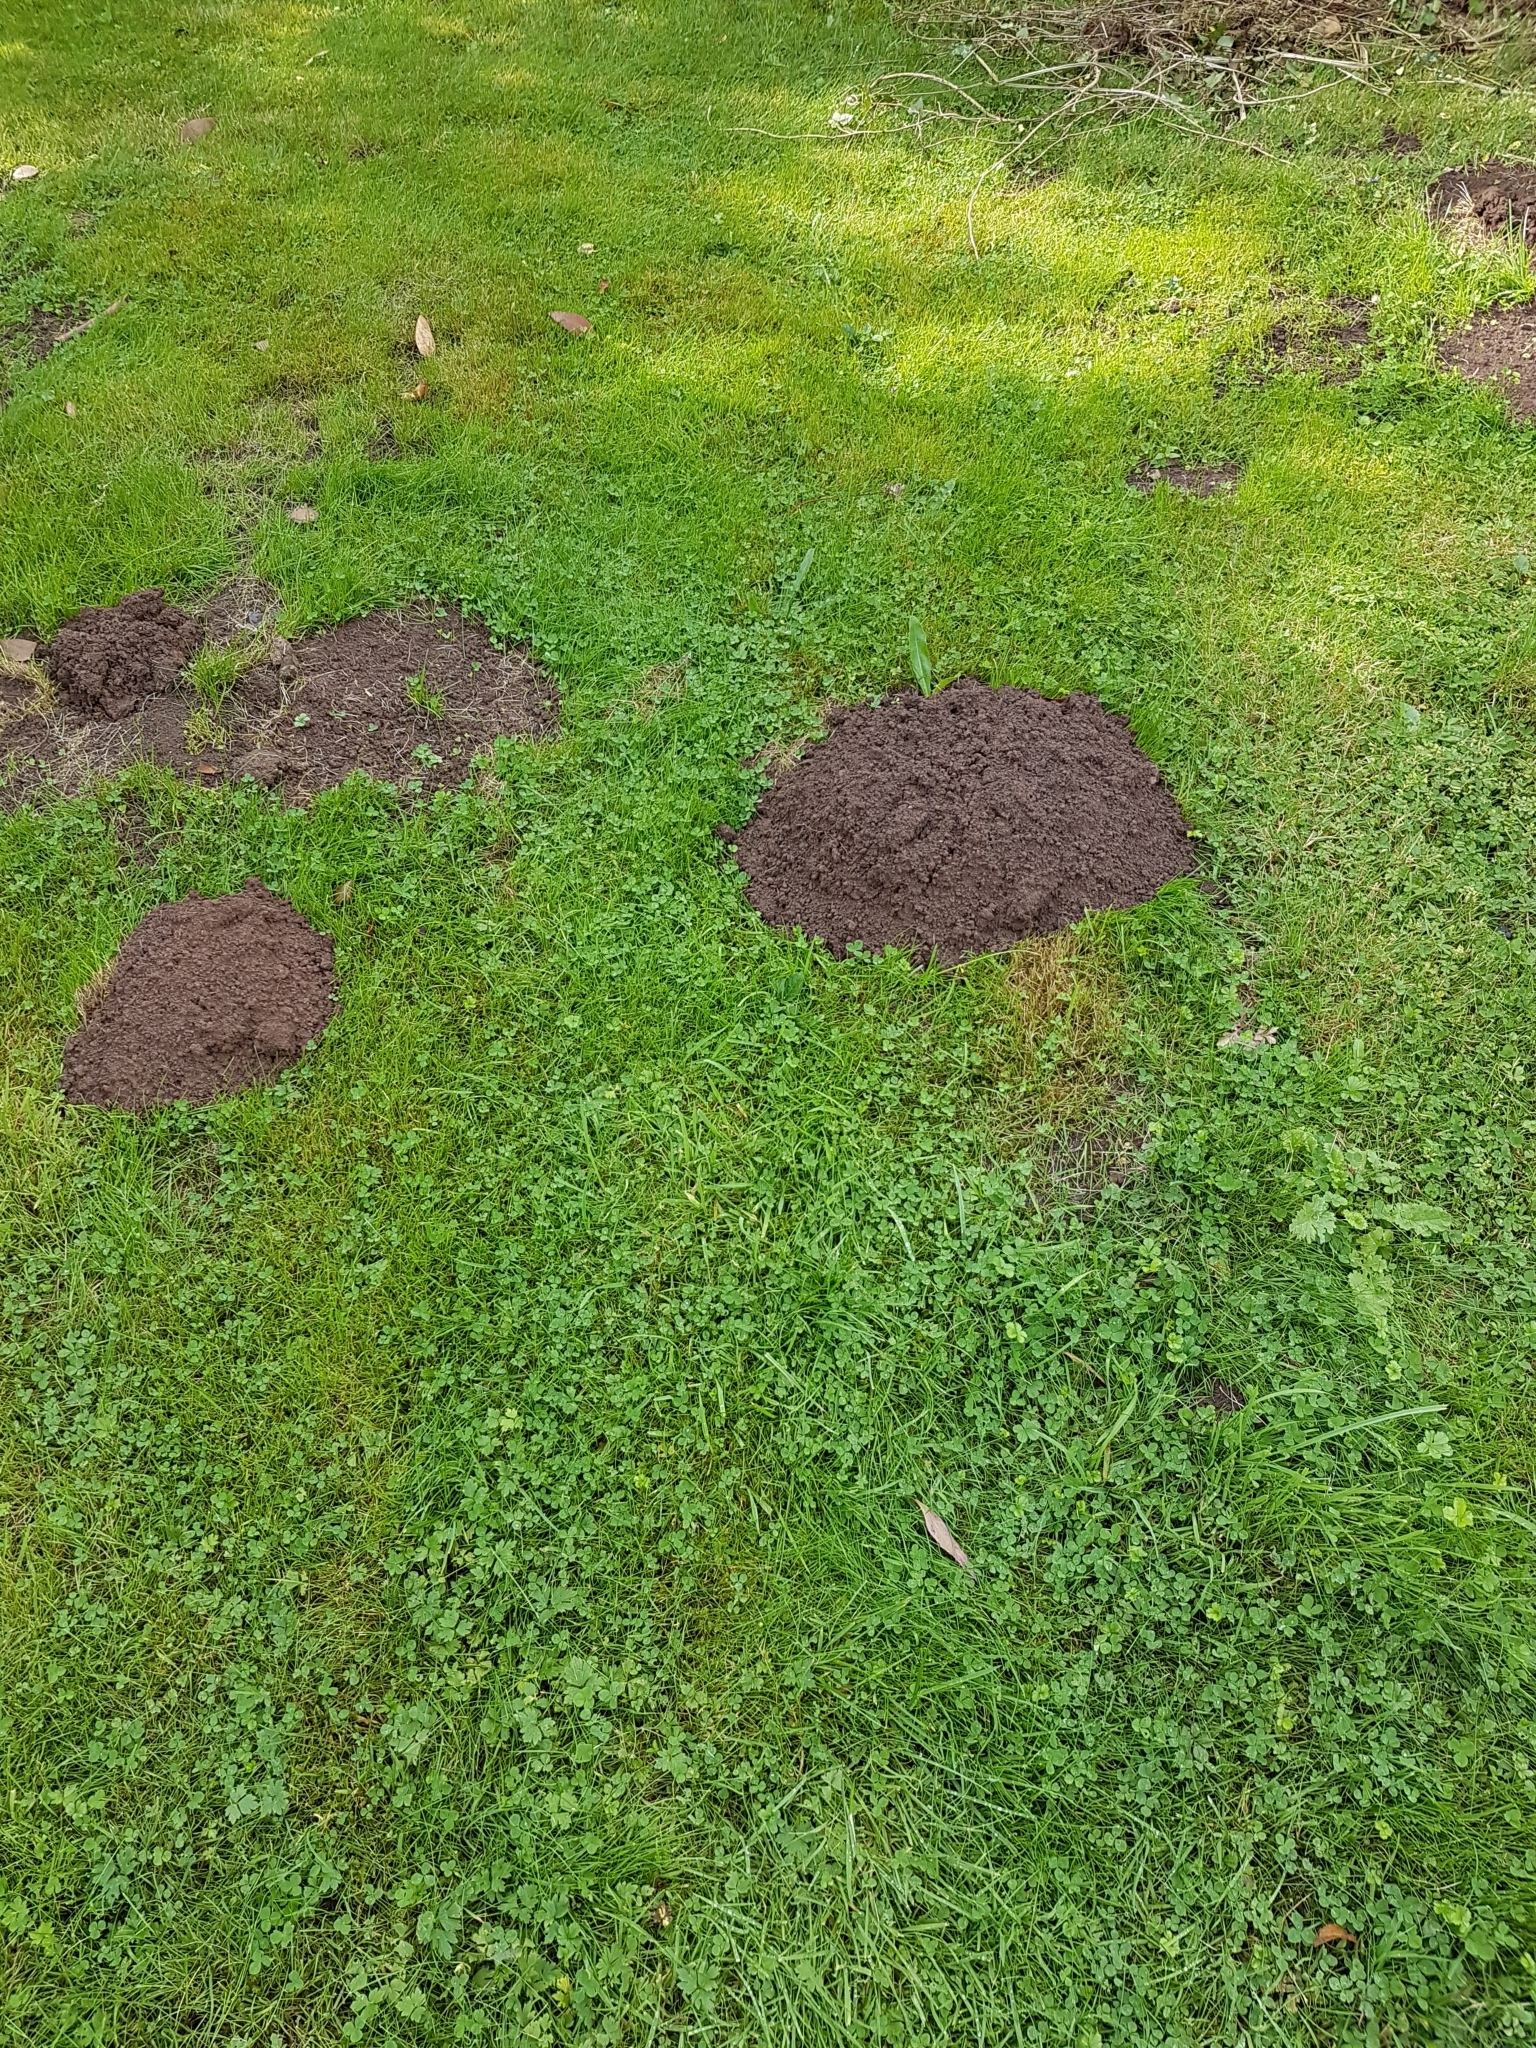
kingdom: Animalia
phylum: Chordata
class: Mammalia
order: Soricomorpha
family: Talpidae
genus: Talpa
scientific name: Talpa europaea
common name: European mole
